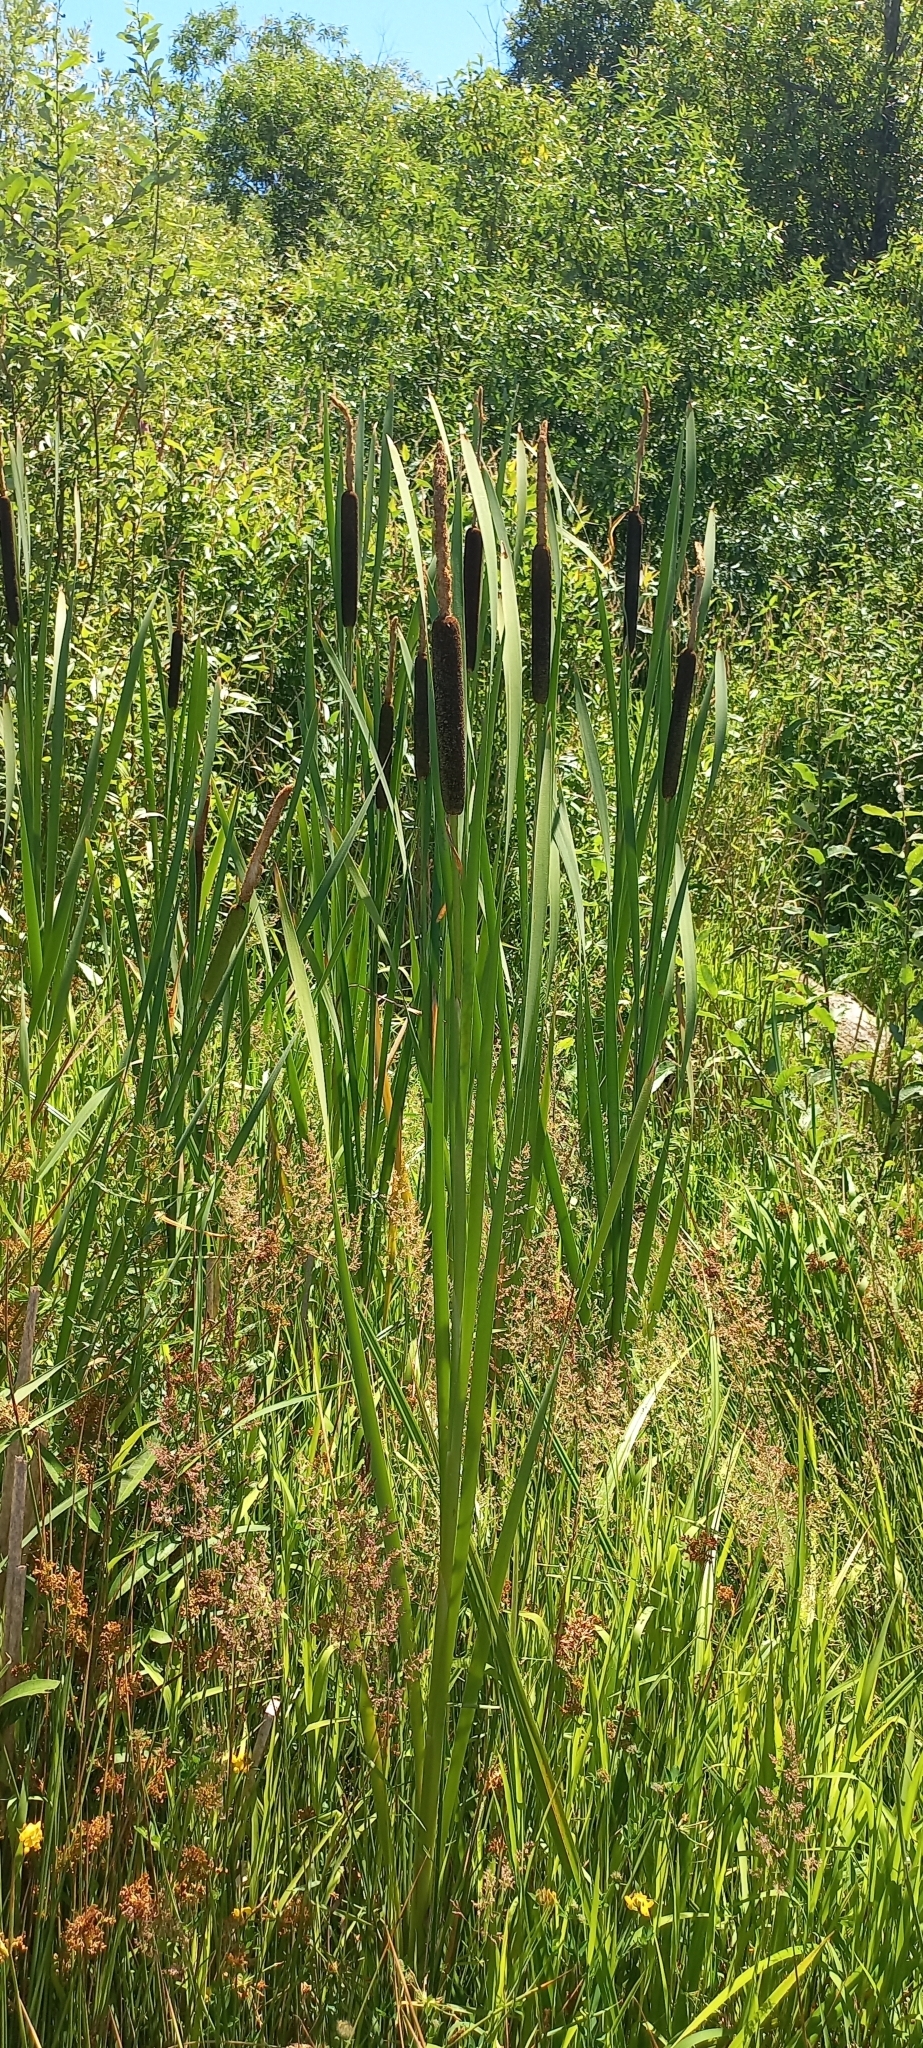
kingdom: Plantae
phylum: Tracheophyta
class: Liliopsida
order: Poales
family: Typhaceae
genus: Typha
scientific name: Typha latifolia
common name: Broadleaf cattail
